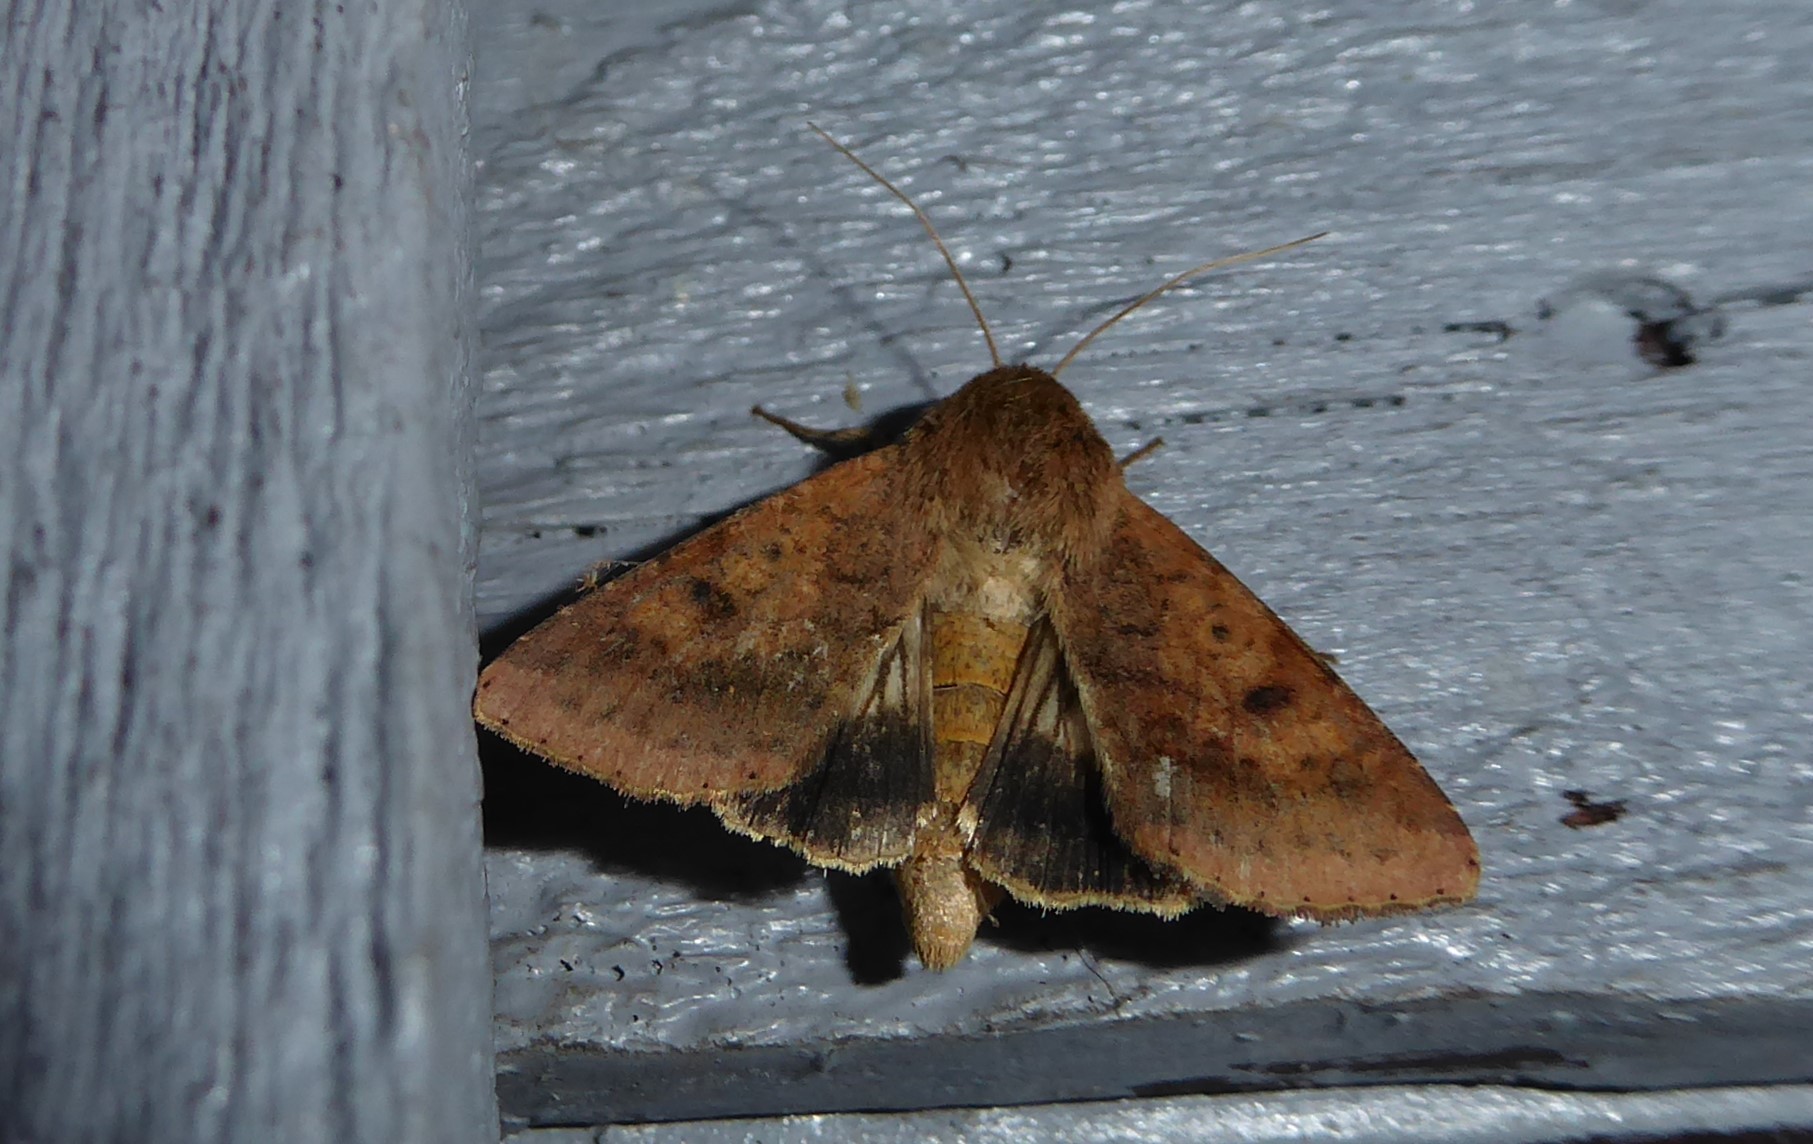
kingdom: Animalia
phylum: Arthropoda
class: Insecta
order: Lepidoptera
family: Noctuidae
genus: Helicoverpa
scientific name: Helicoverpa armigera
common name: Cotton bollworm
